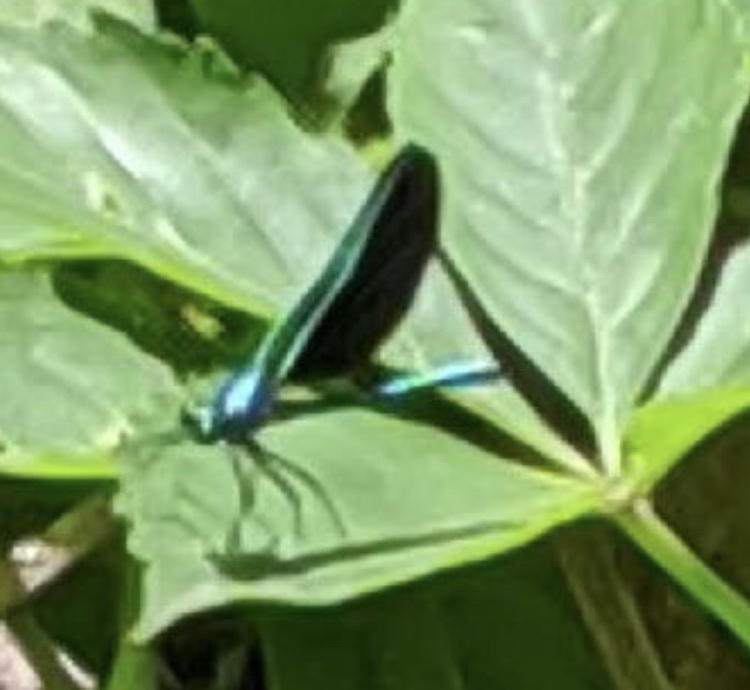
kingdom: Animalia
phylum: Arthropoda
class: Insecta
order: Odonata
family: Calopterygidae
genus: Calopteryx
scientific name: Calopteryx maculata
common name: Ebony jewelwing
